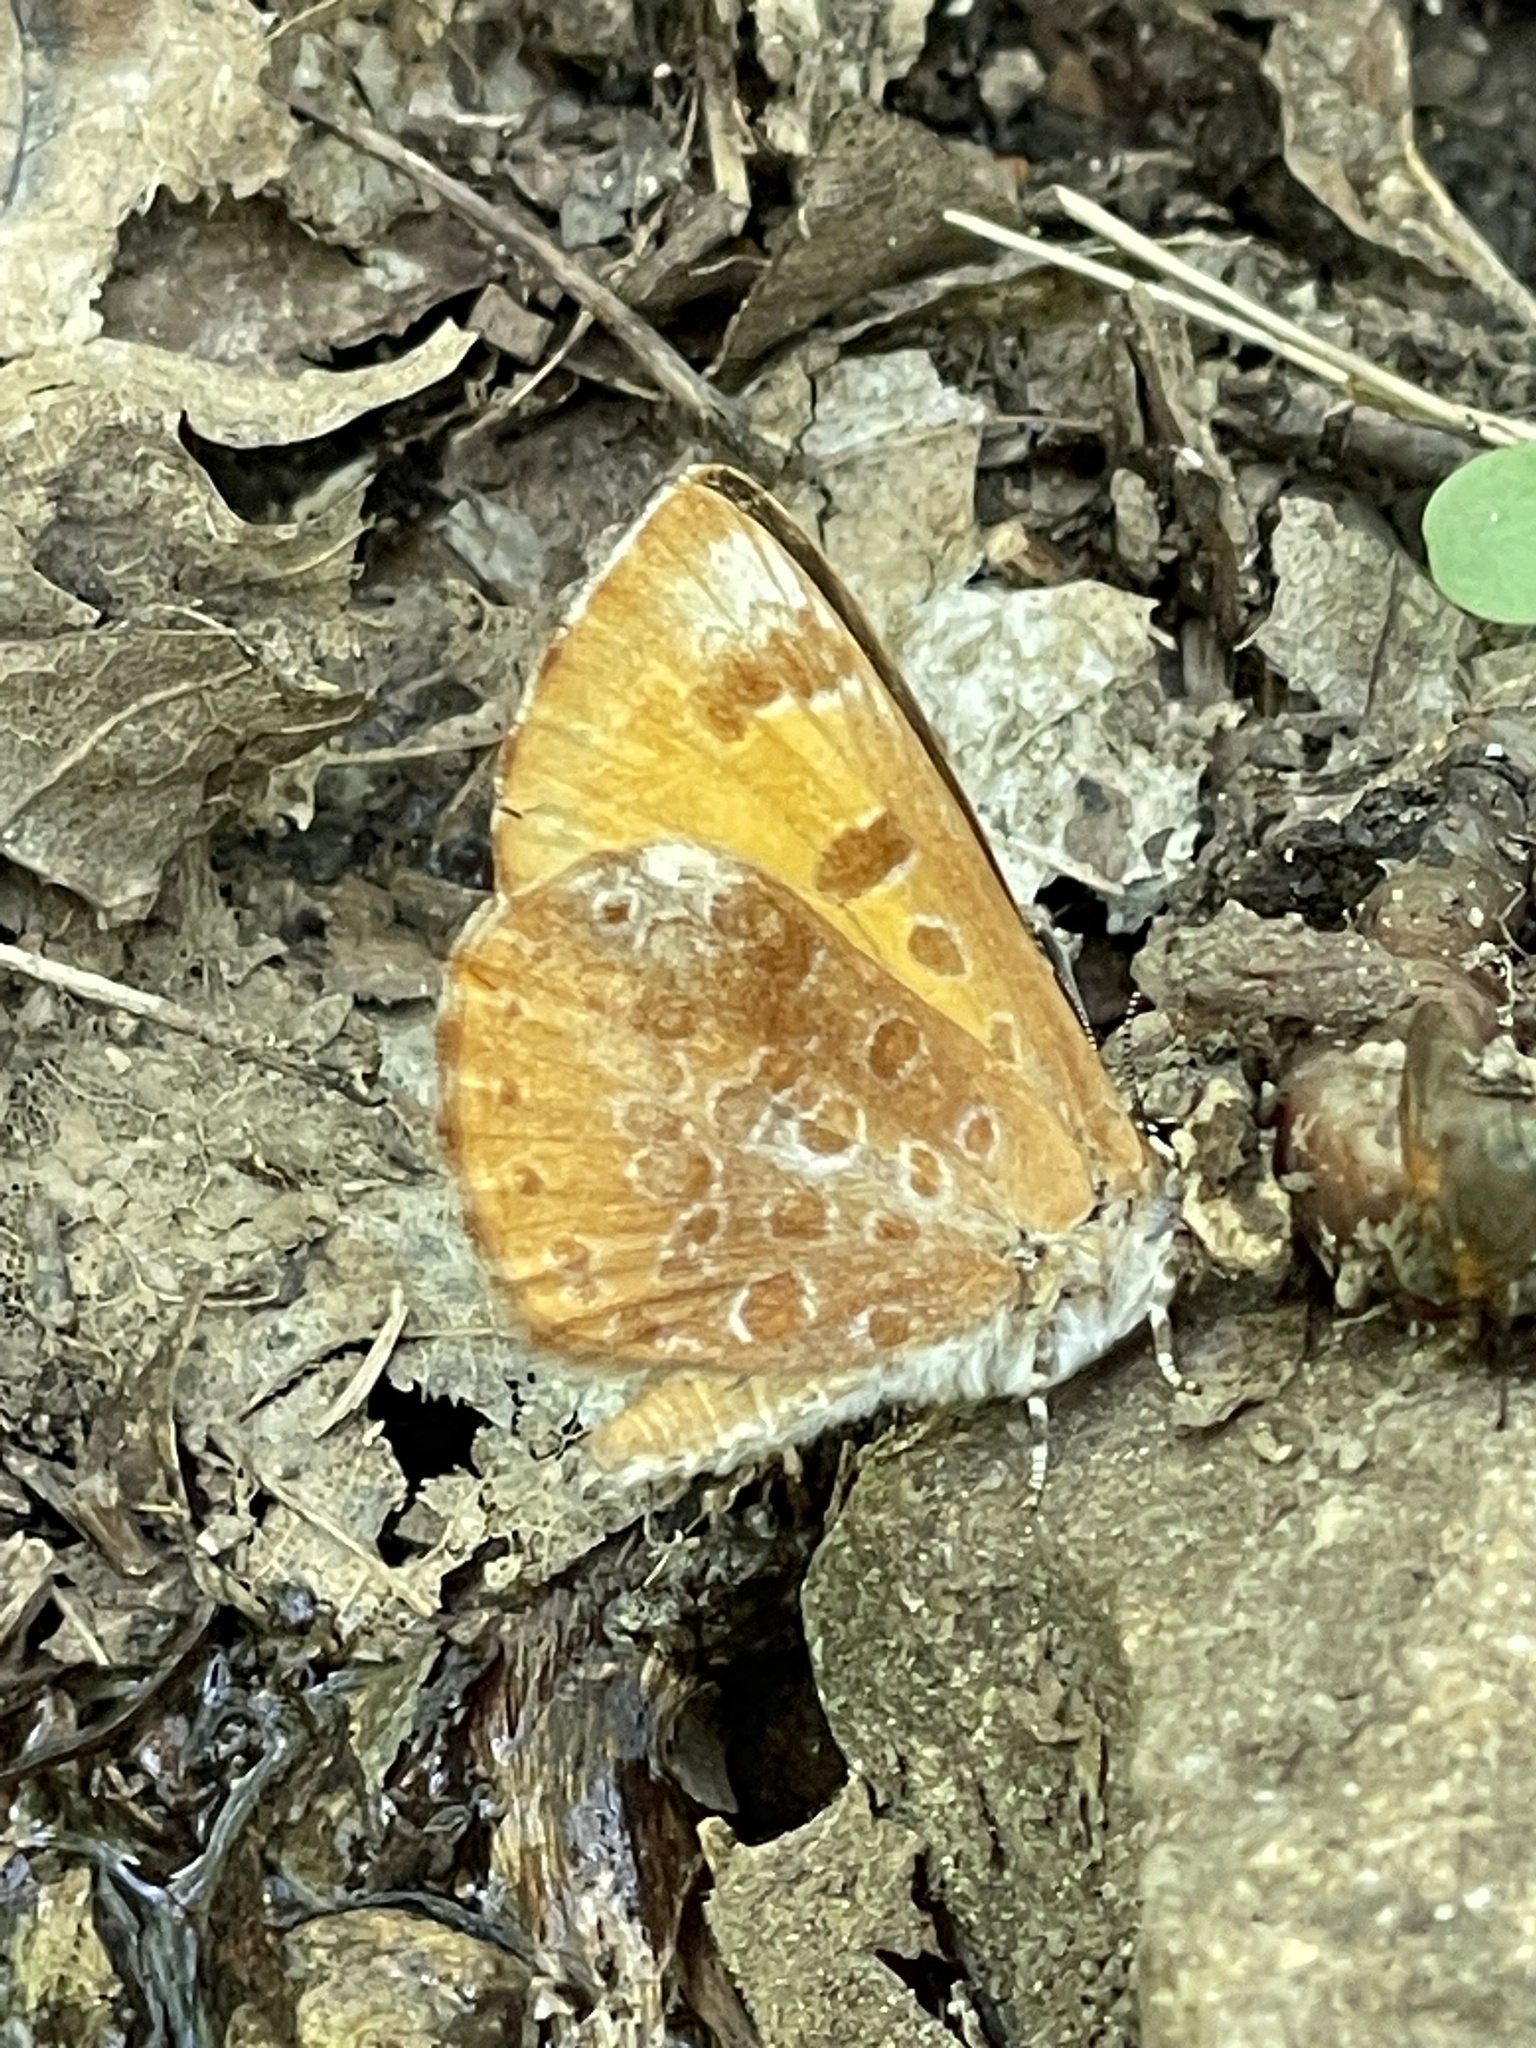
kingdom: Animalia
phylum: Arthropoda
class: Insecta
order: Lepidoptera
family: Lycaenidae
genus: Feniseca
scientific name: Feniseca tarquinius
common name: Harvester
